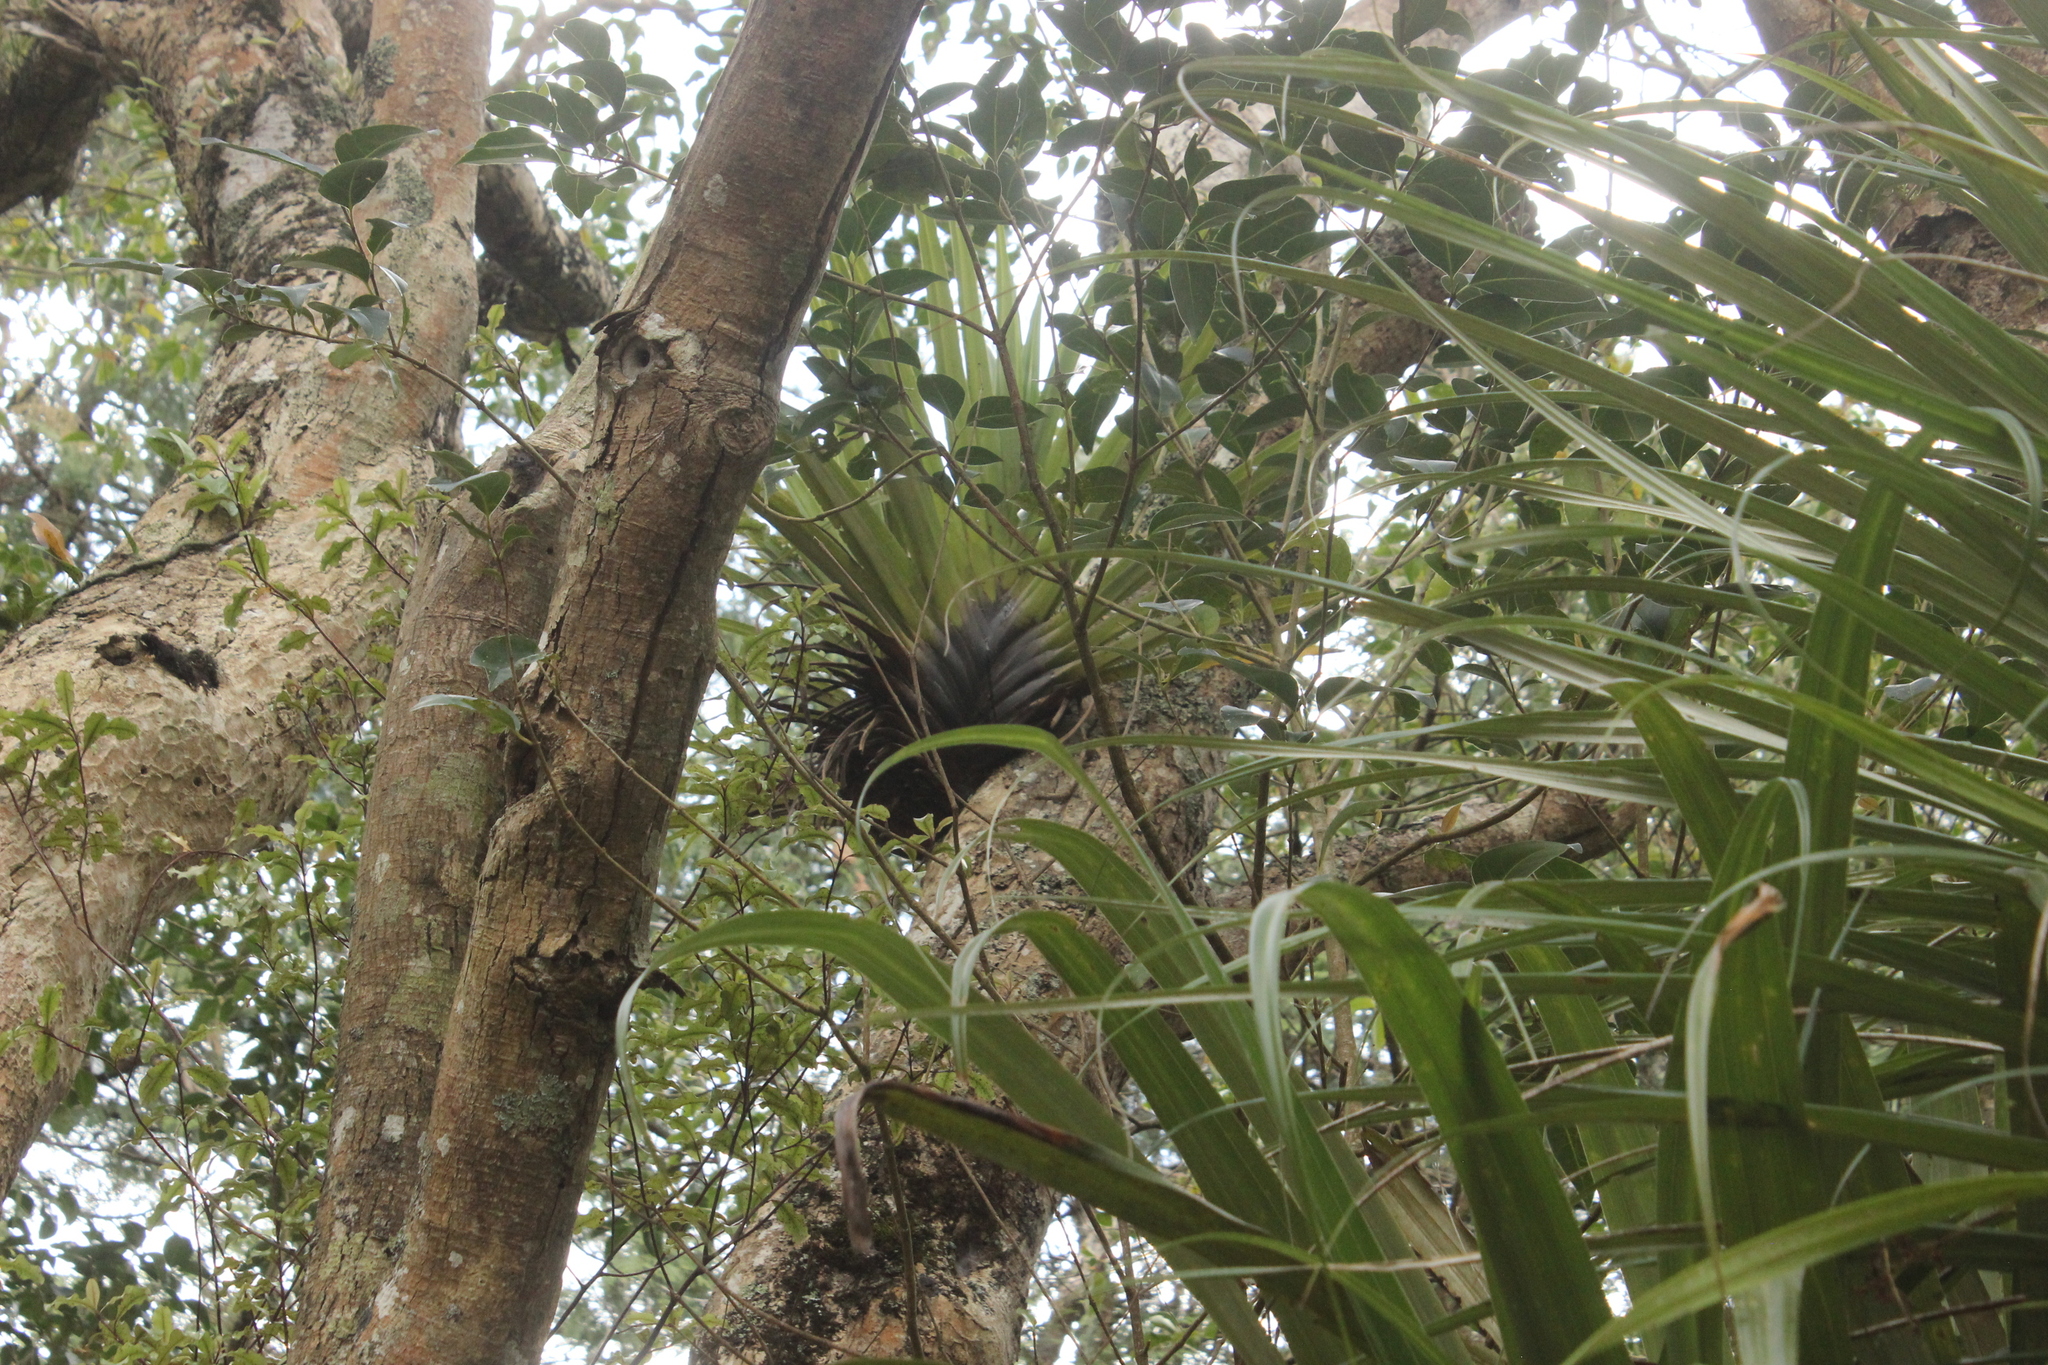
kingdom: Plantae
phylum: Tracheophyta
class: Liliopsida
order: Asparagales
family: Asteliaceae
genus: Astelia
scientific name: Astelia hastata
